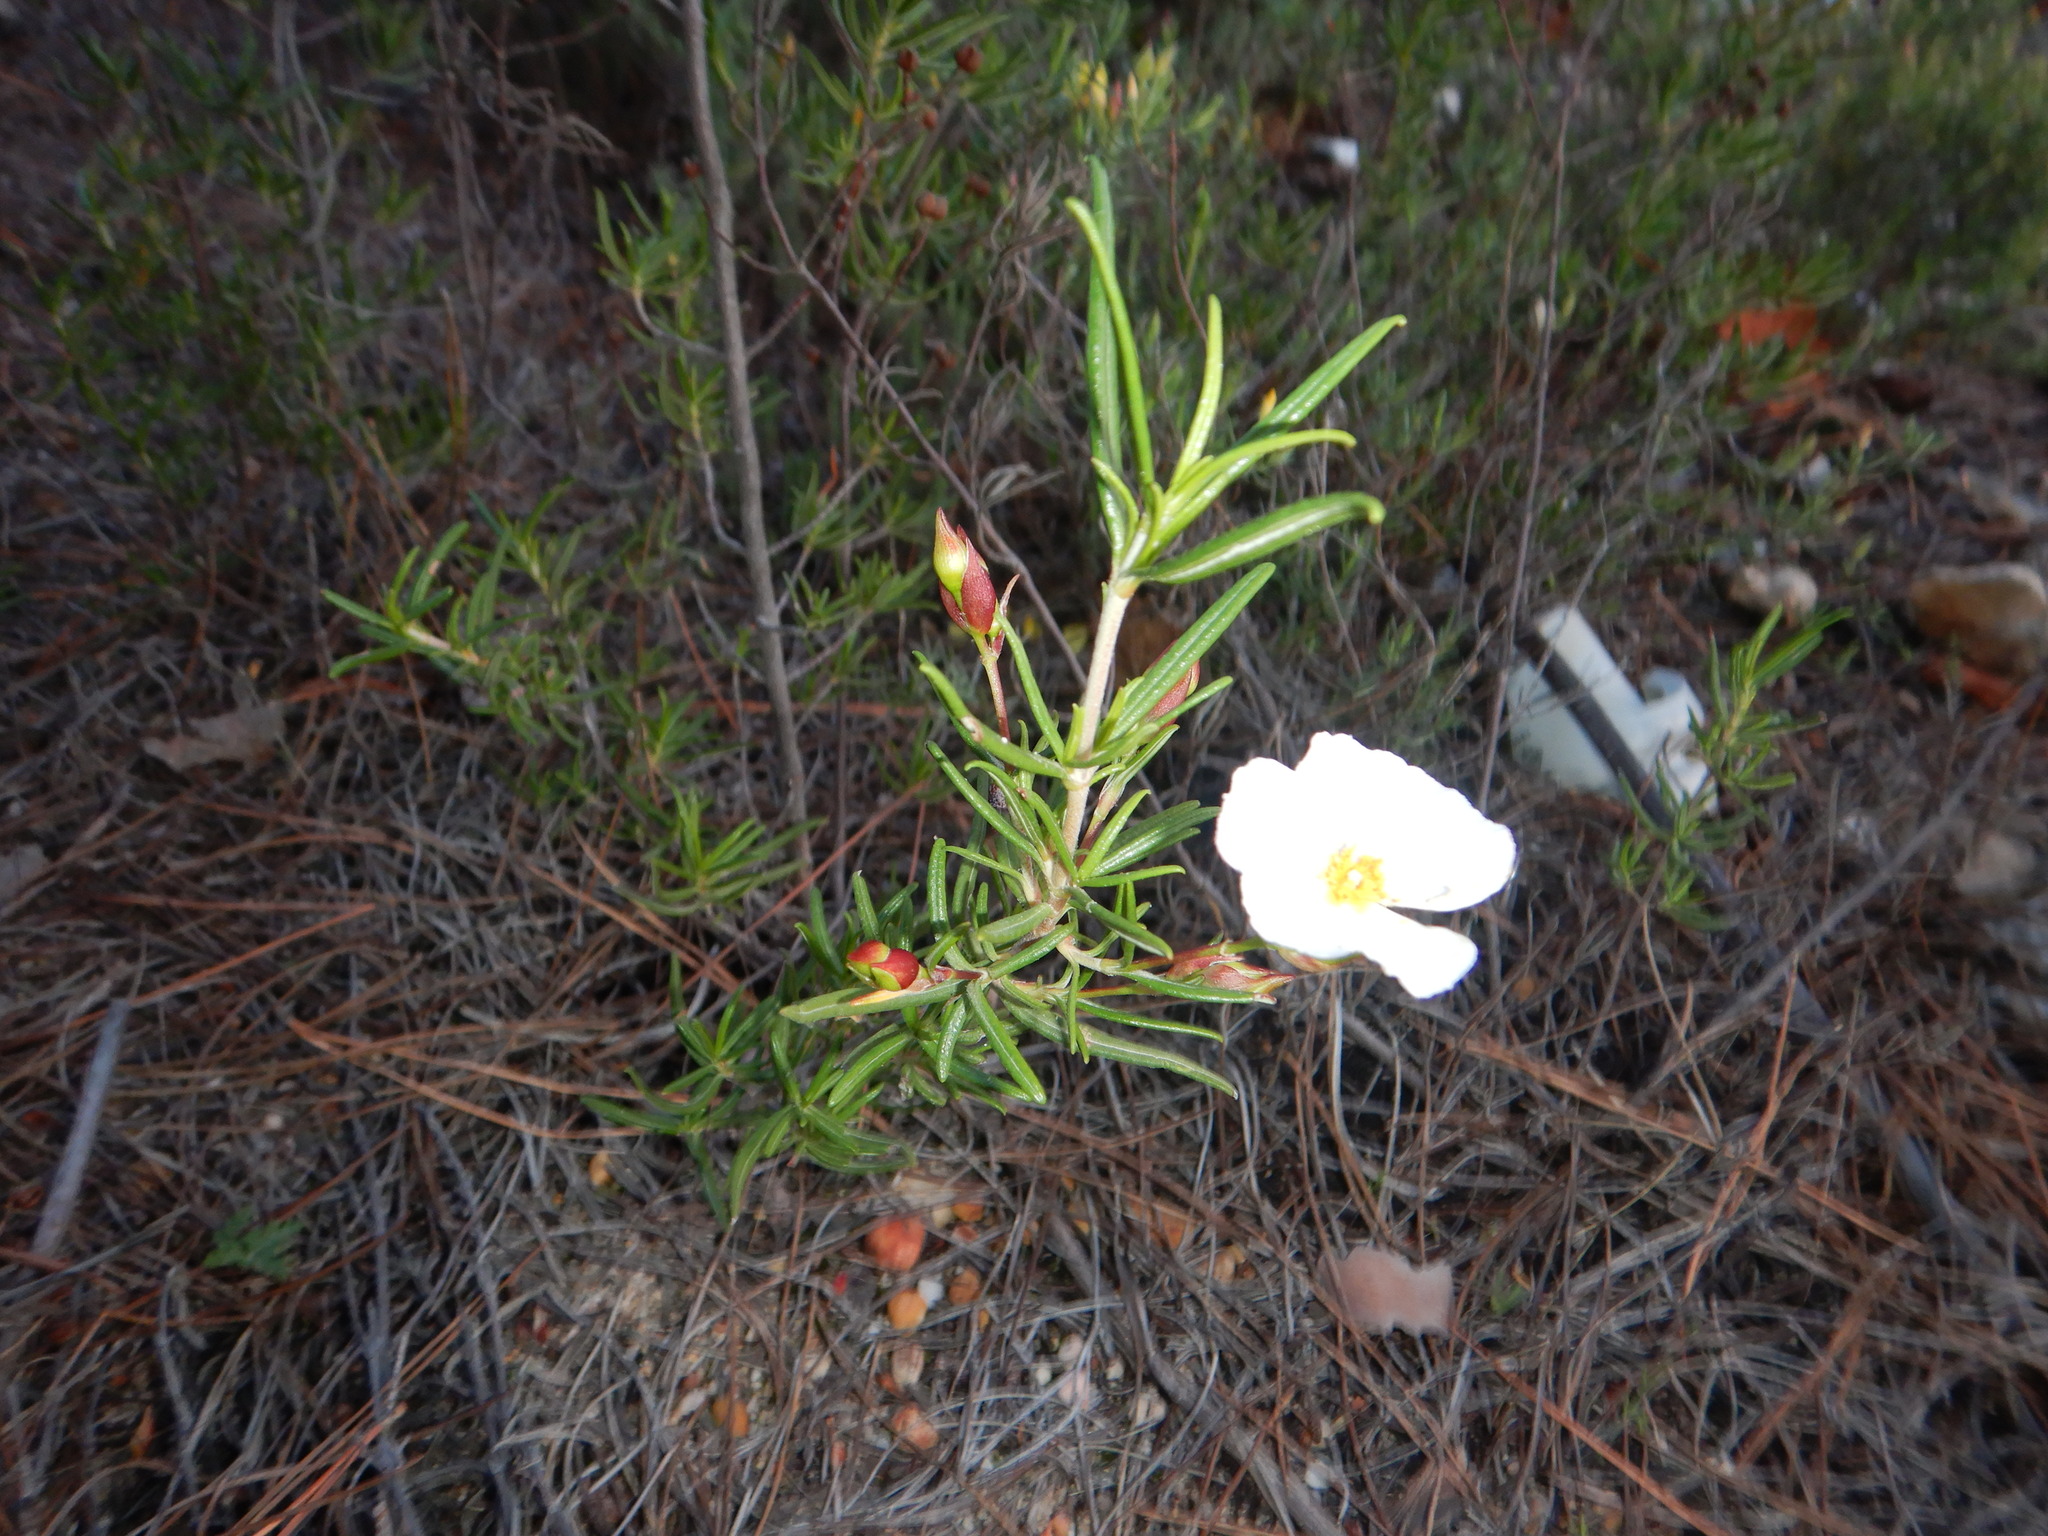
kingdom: Plantae
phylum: Tracheophyta
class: Magnoliopsida
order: Malvales
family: Cistaceae
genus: Cistus
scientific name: Cistus libanotis
